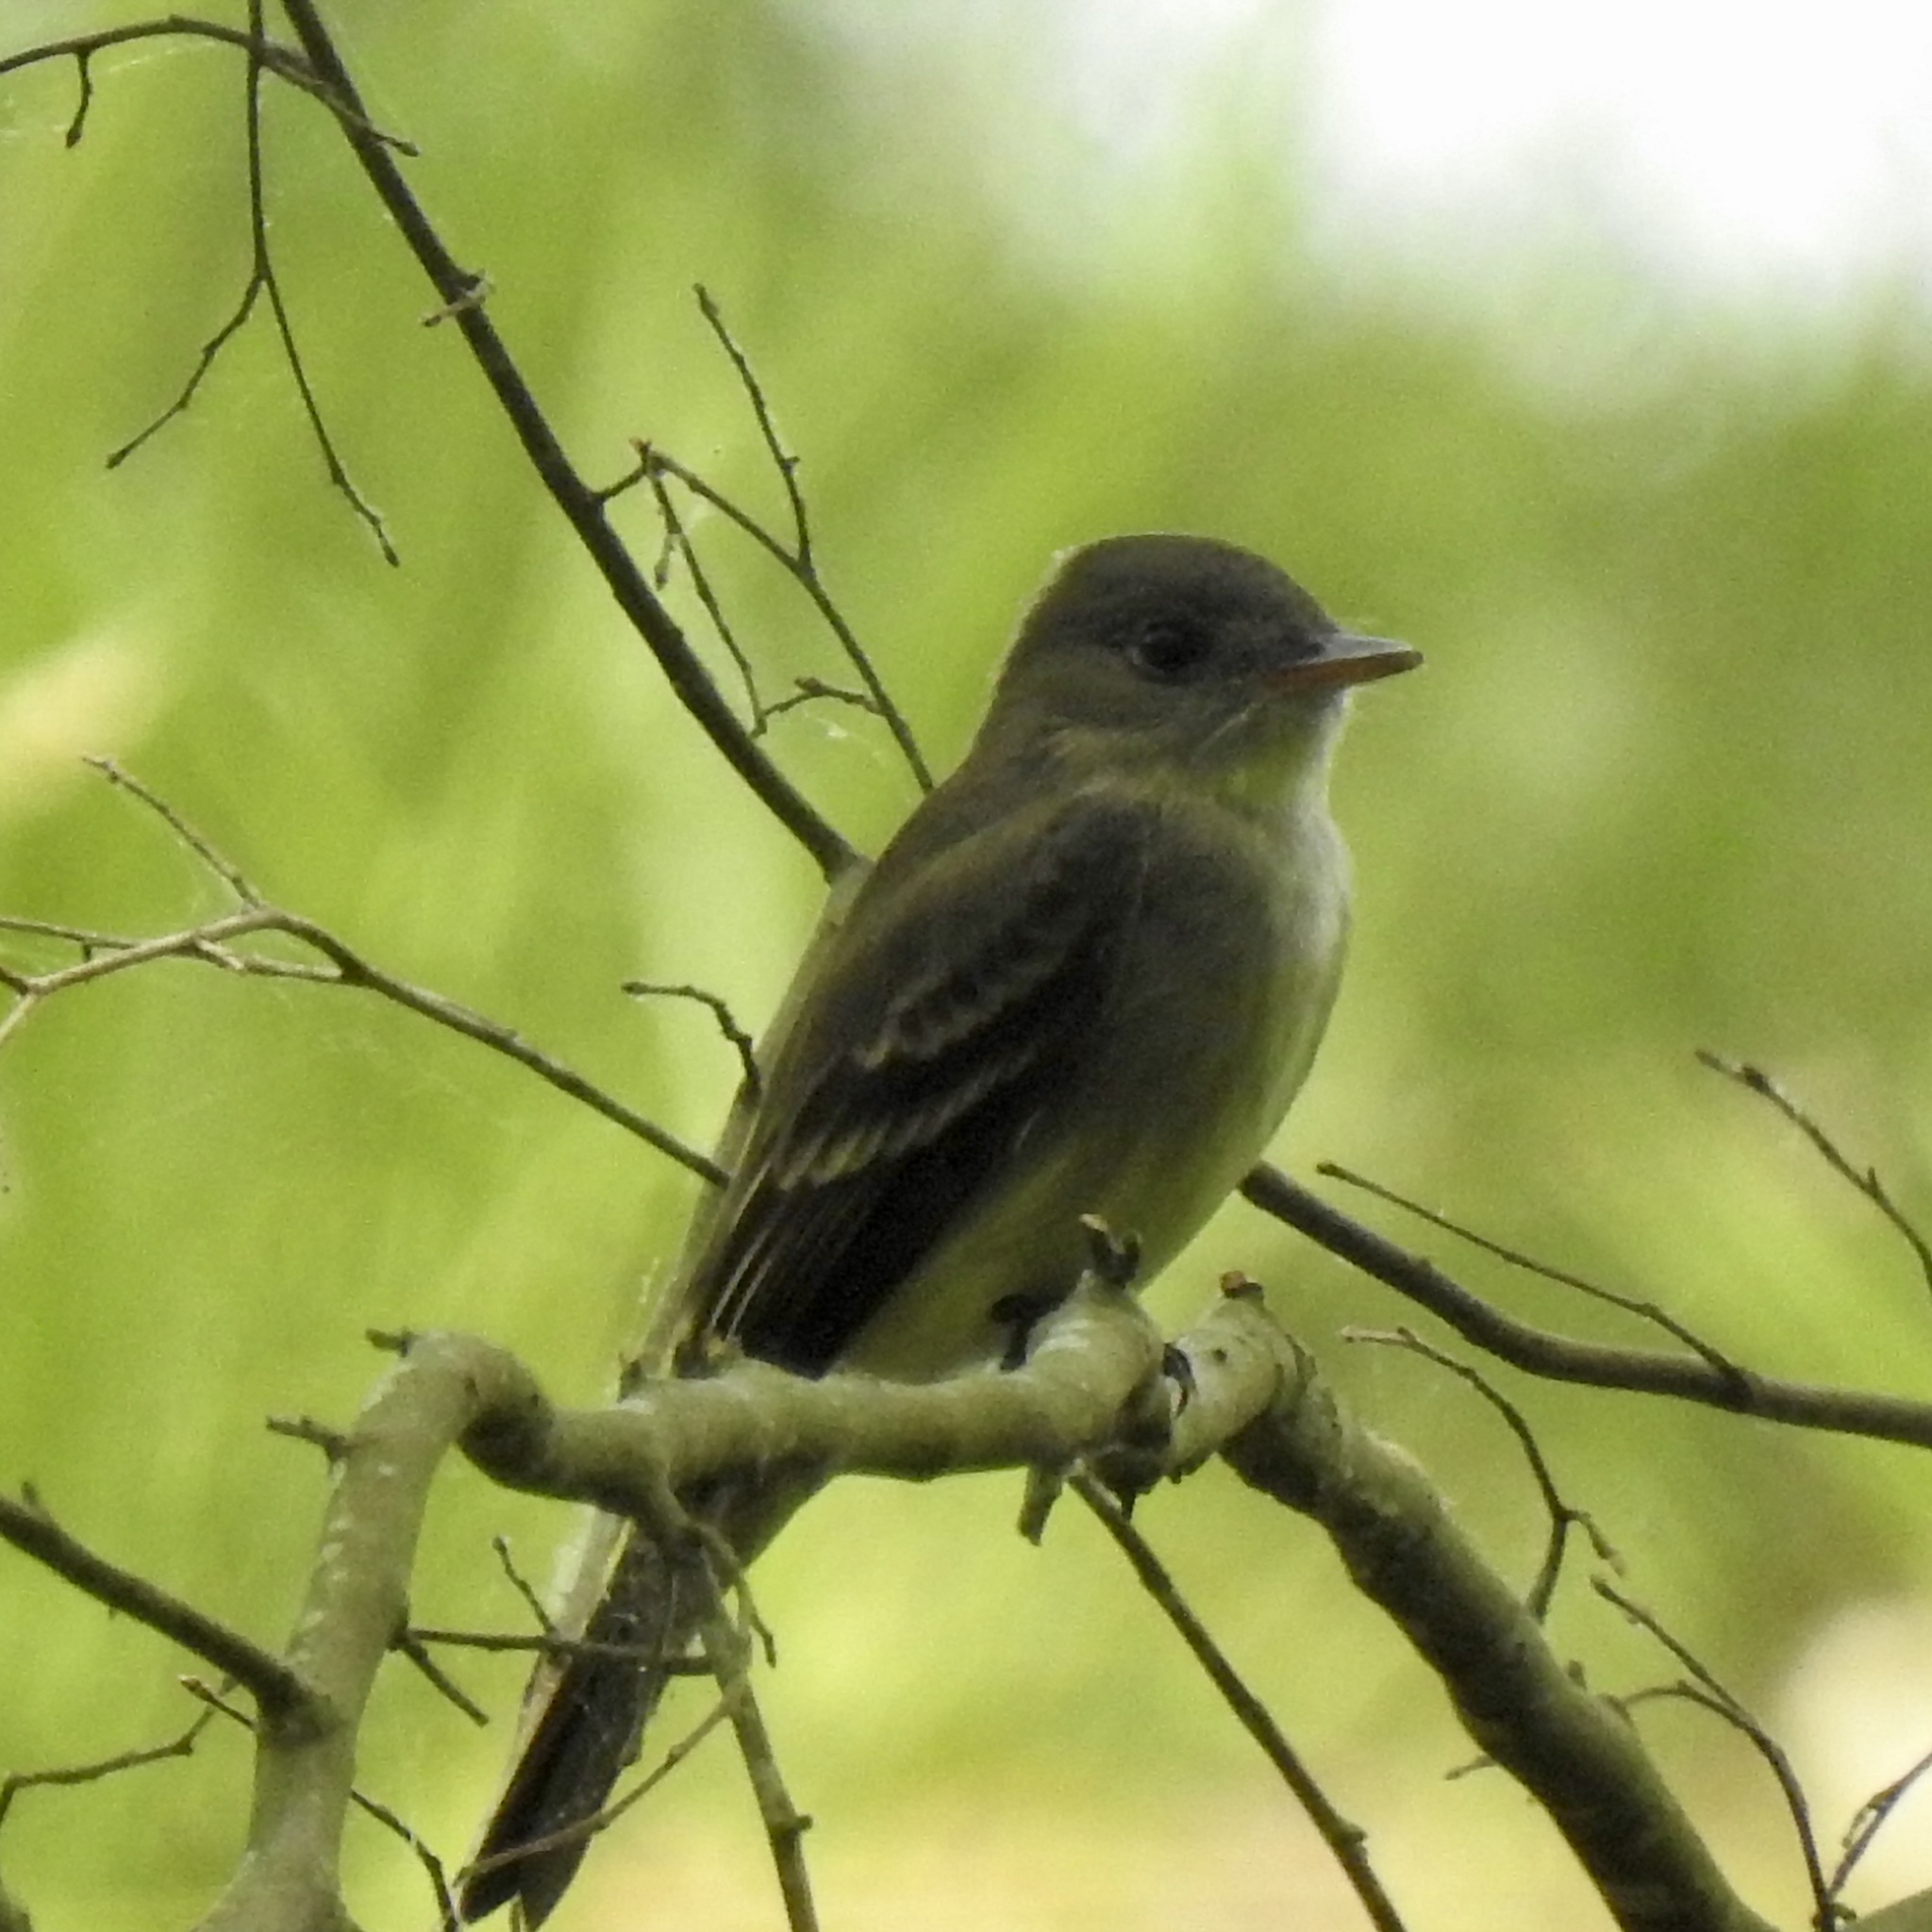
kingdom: Animalia
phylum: Chordata
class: Aves
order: Passeriformes
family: Tyrannidae
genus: Contopus
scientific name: Contopus virens
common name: Eastern wood-pewee
